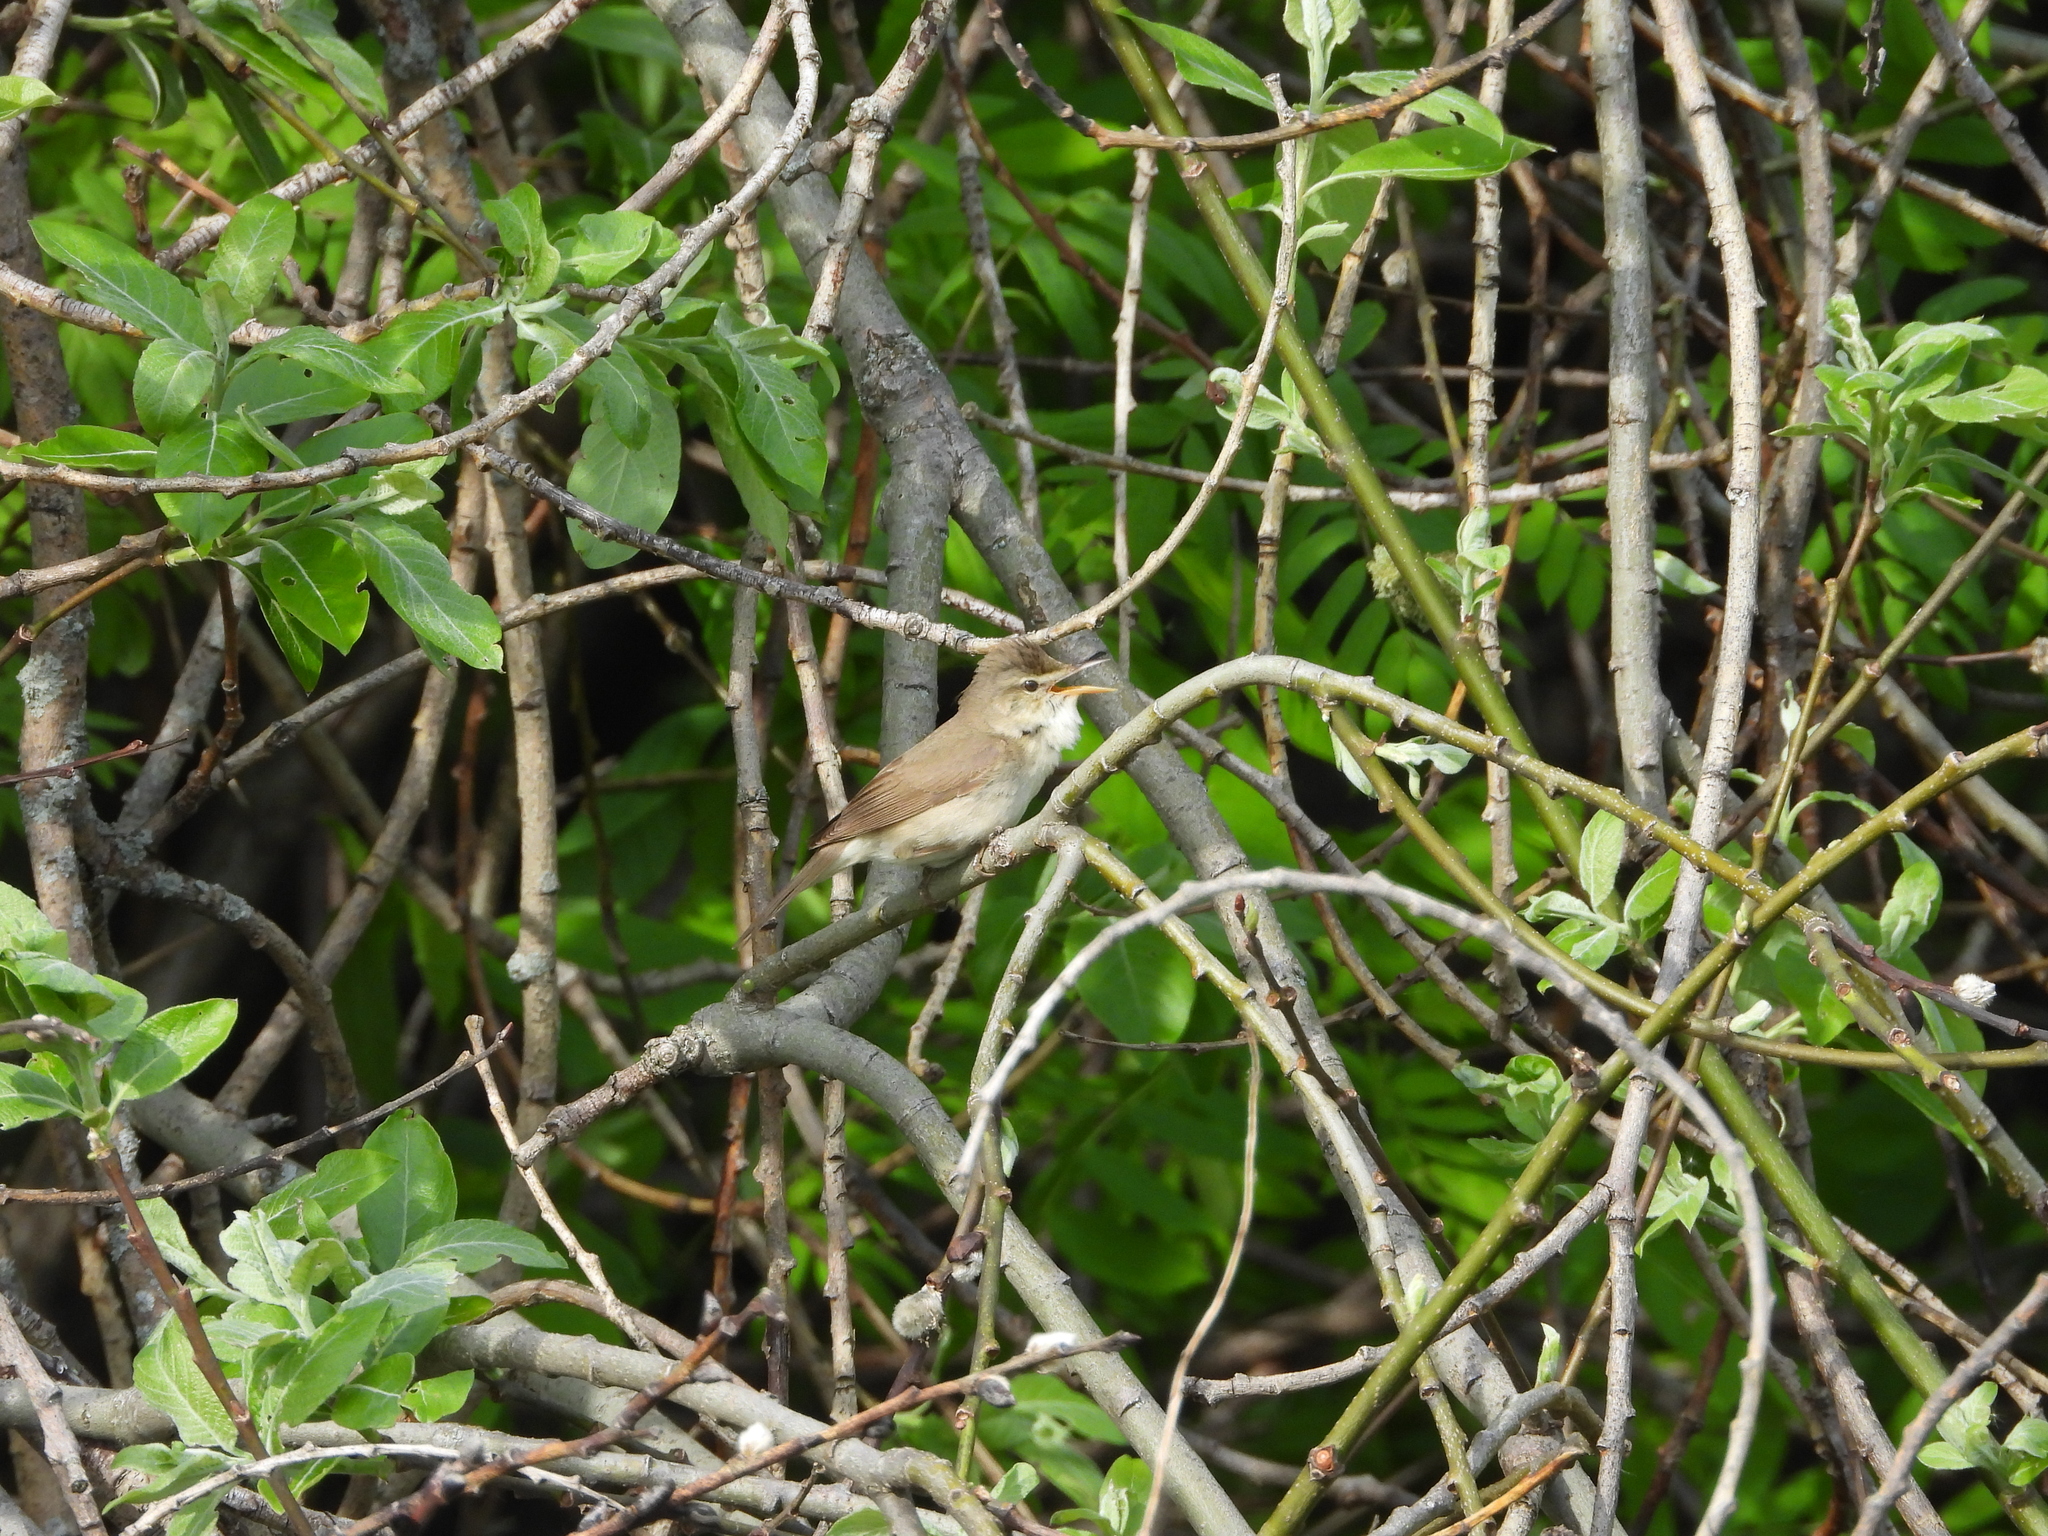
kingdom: Animalia
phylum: Chordata
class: Aves
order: Passeriformes
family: Acrocephalidae
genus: Acrocephalus
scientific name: Acrocephalus dumetorum
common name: Blyth's reed warbler
